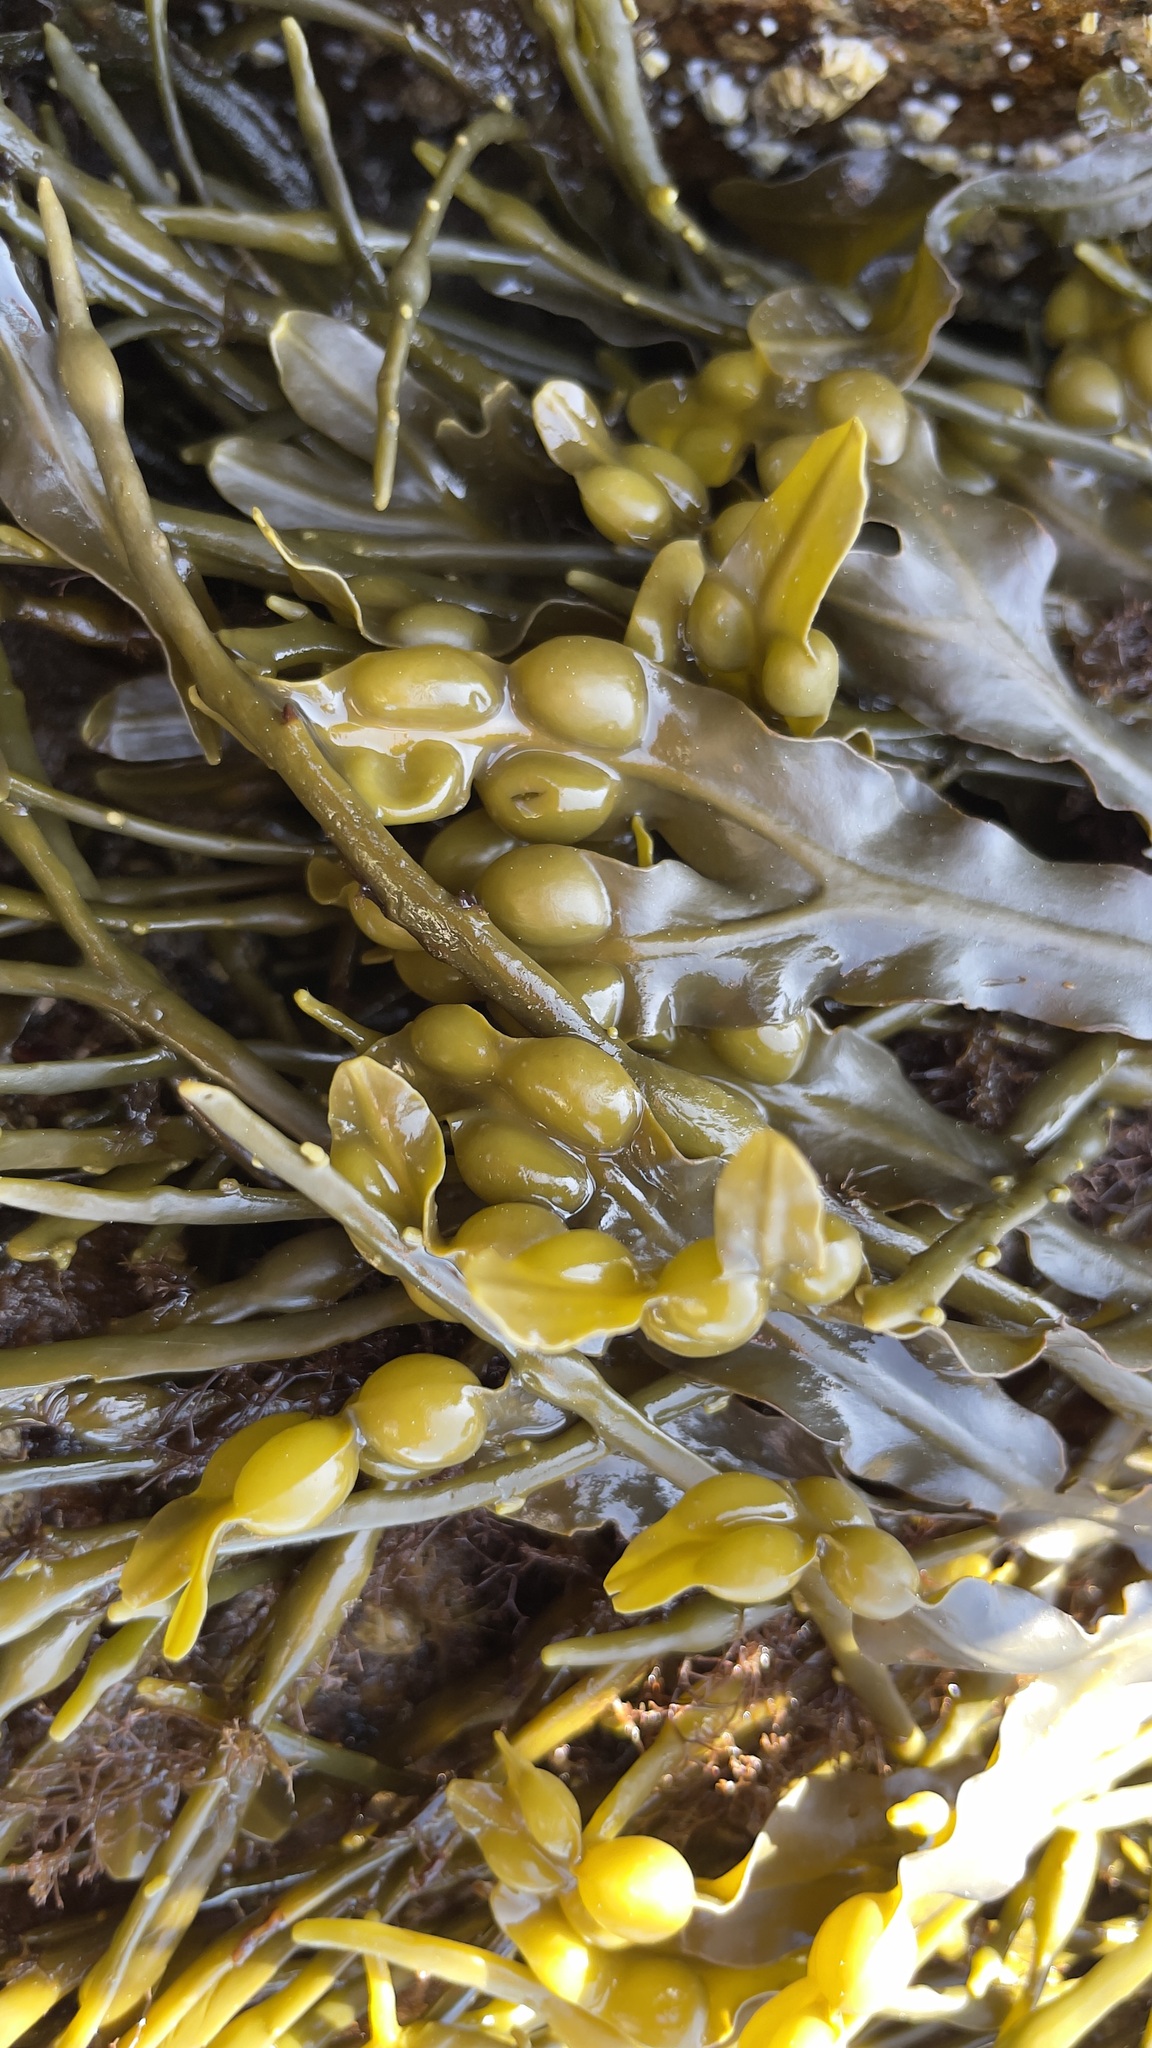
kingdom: Chromista
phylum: Ochrophyta
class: Phaeophyceae
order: Fucales
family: Fucaceae
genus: Fucus
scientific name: Fucus vesiculosus
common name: Bladder wrack
